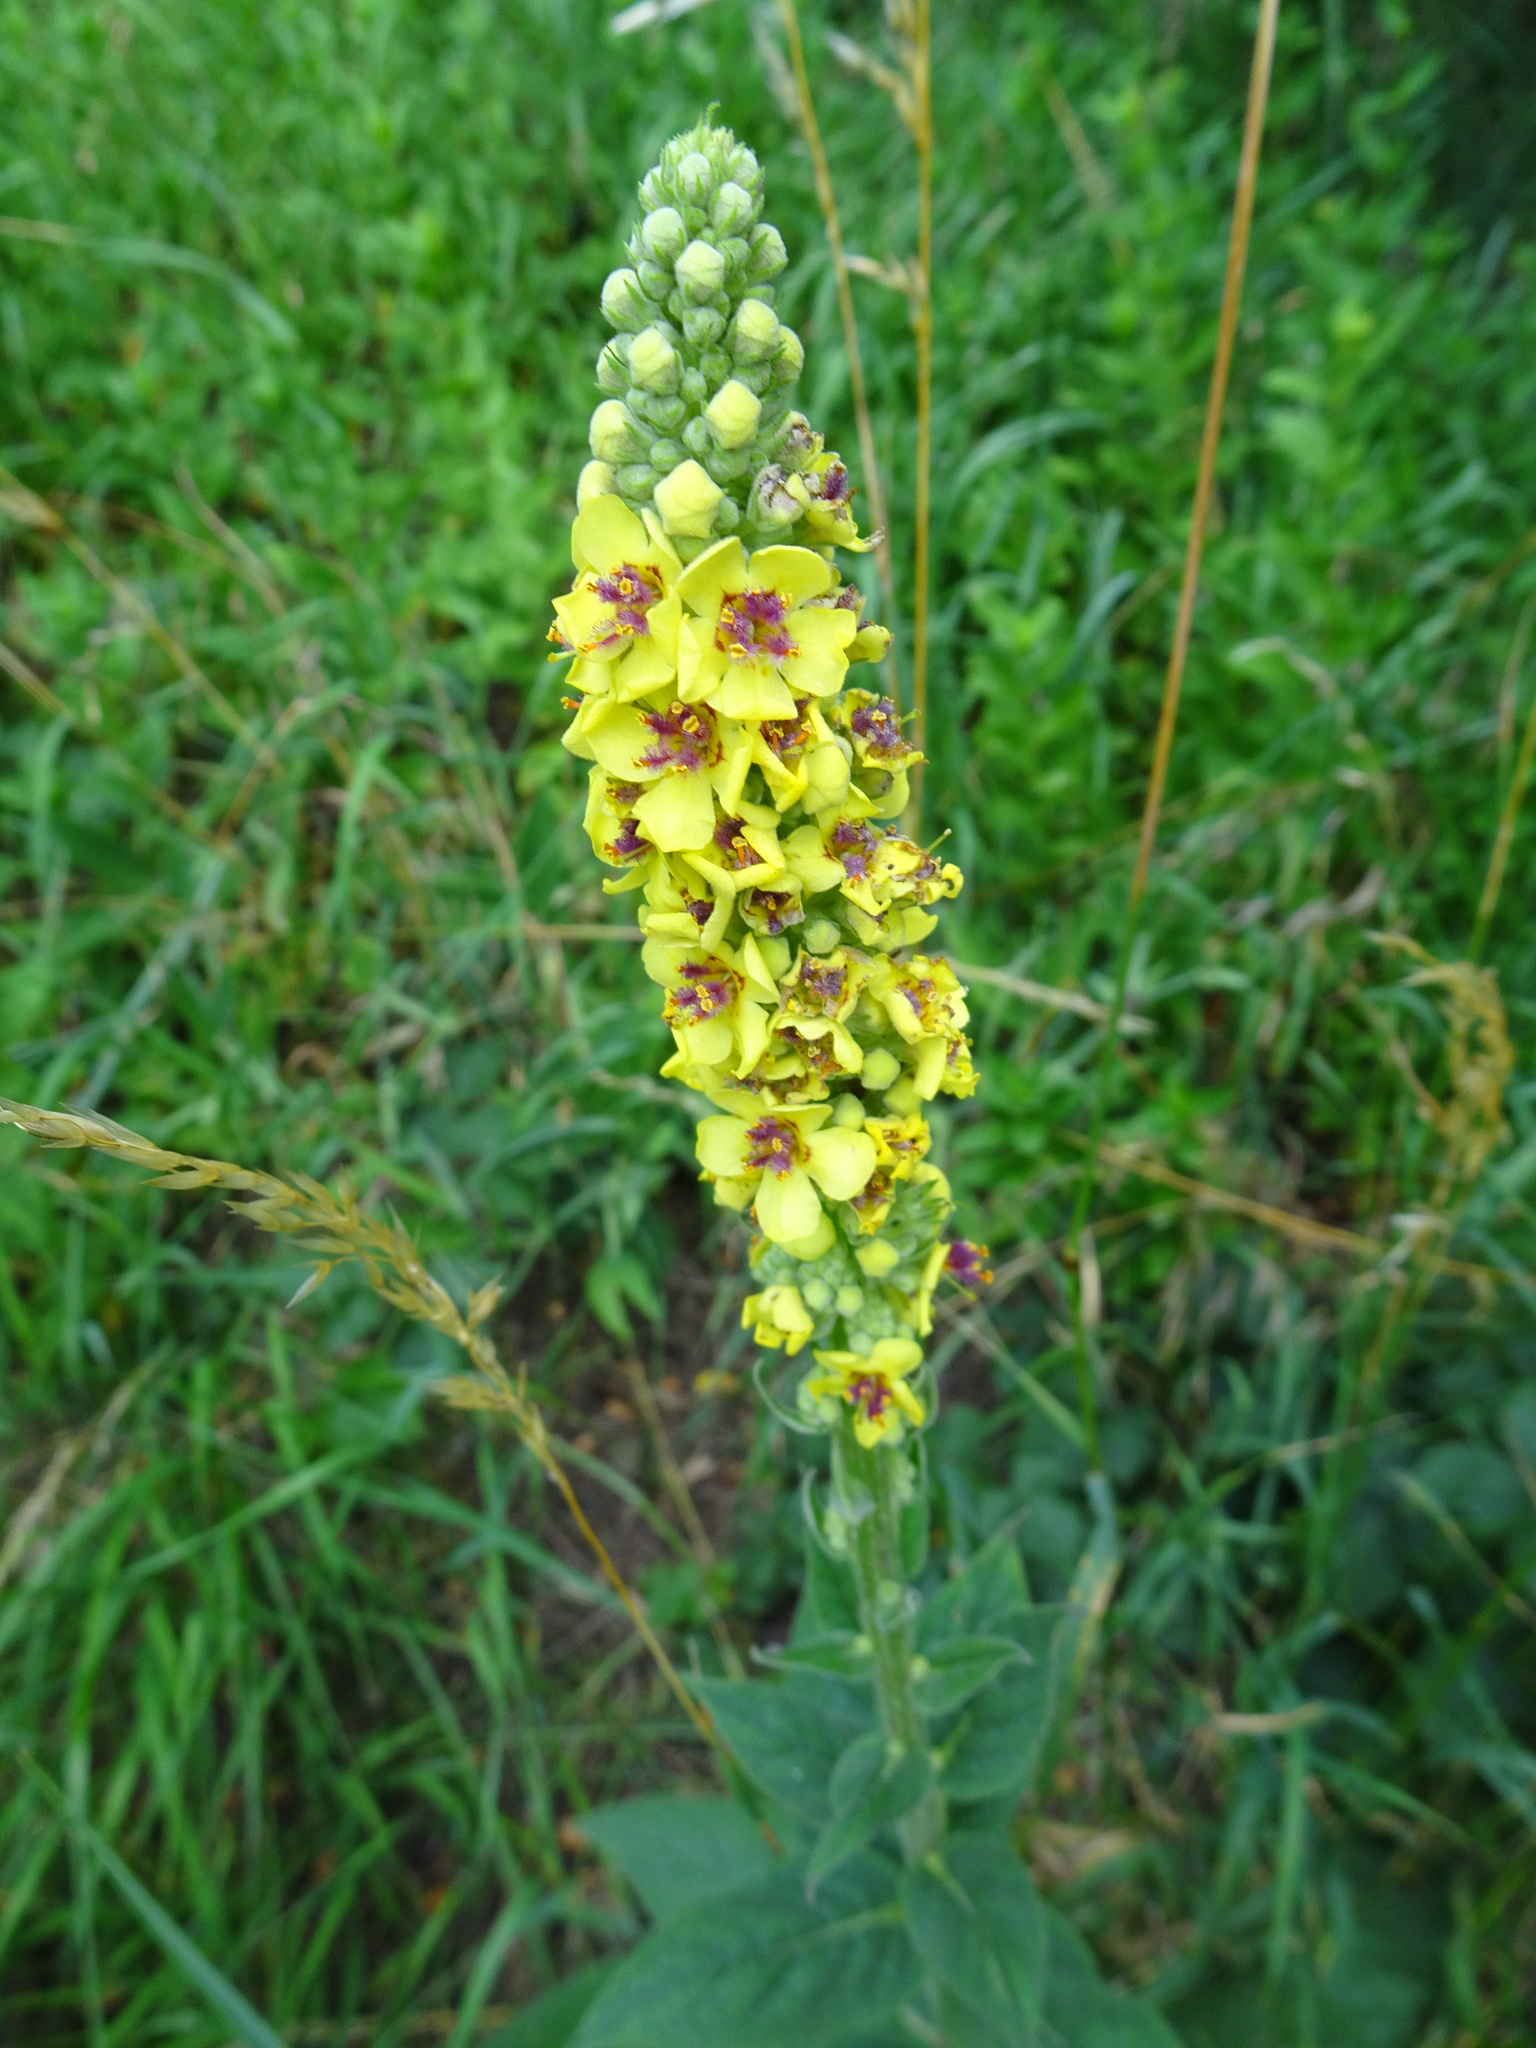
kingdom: Plantae
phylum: Tracheophyta
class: Magnoliopsida
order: Lamiales
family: Scrophulariaceae
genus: Verbascum
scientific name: Verbascum nigrum
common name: Dark mullein
